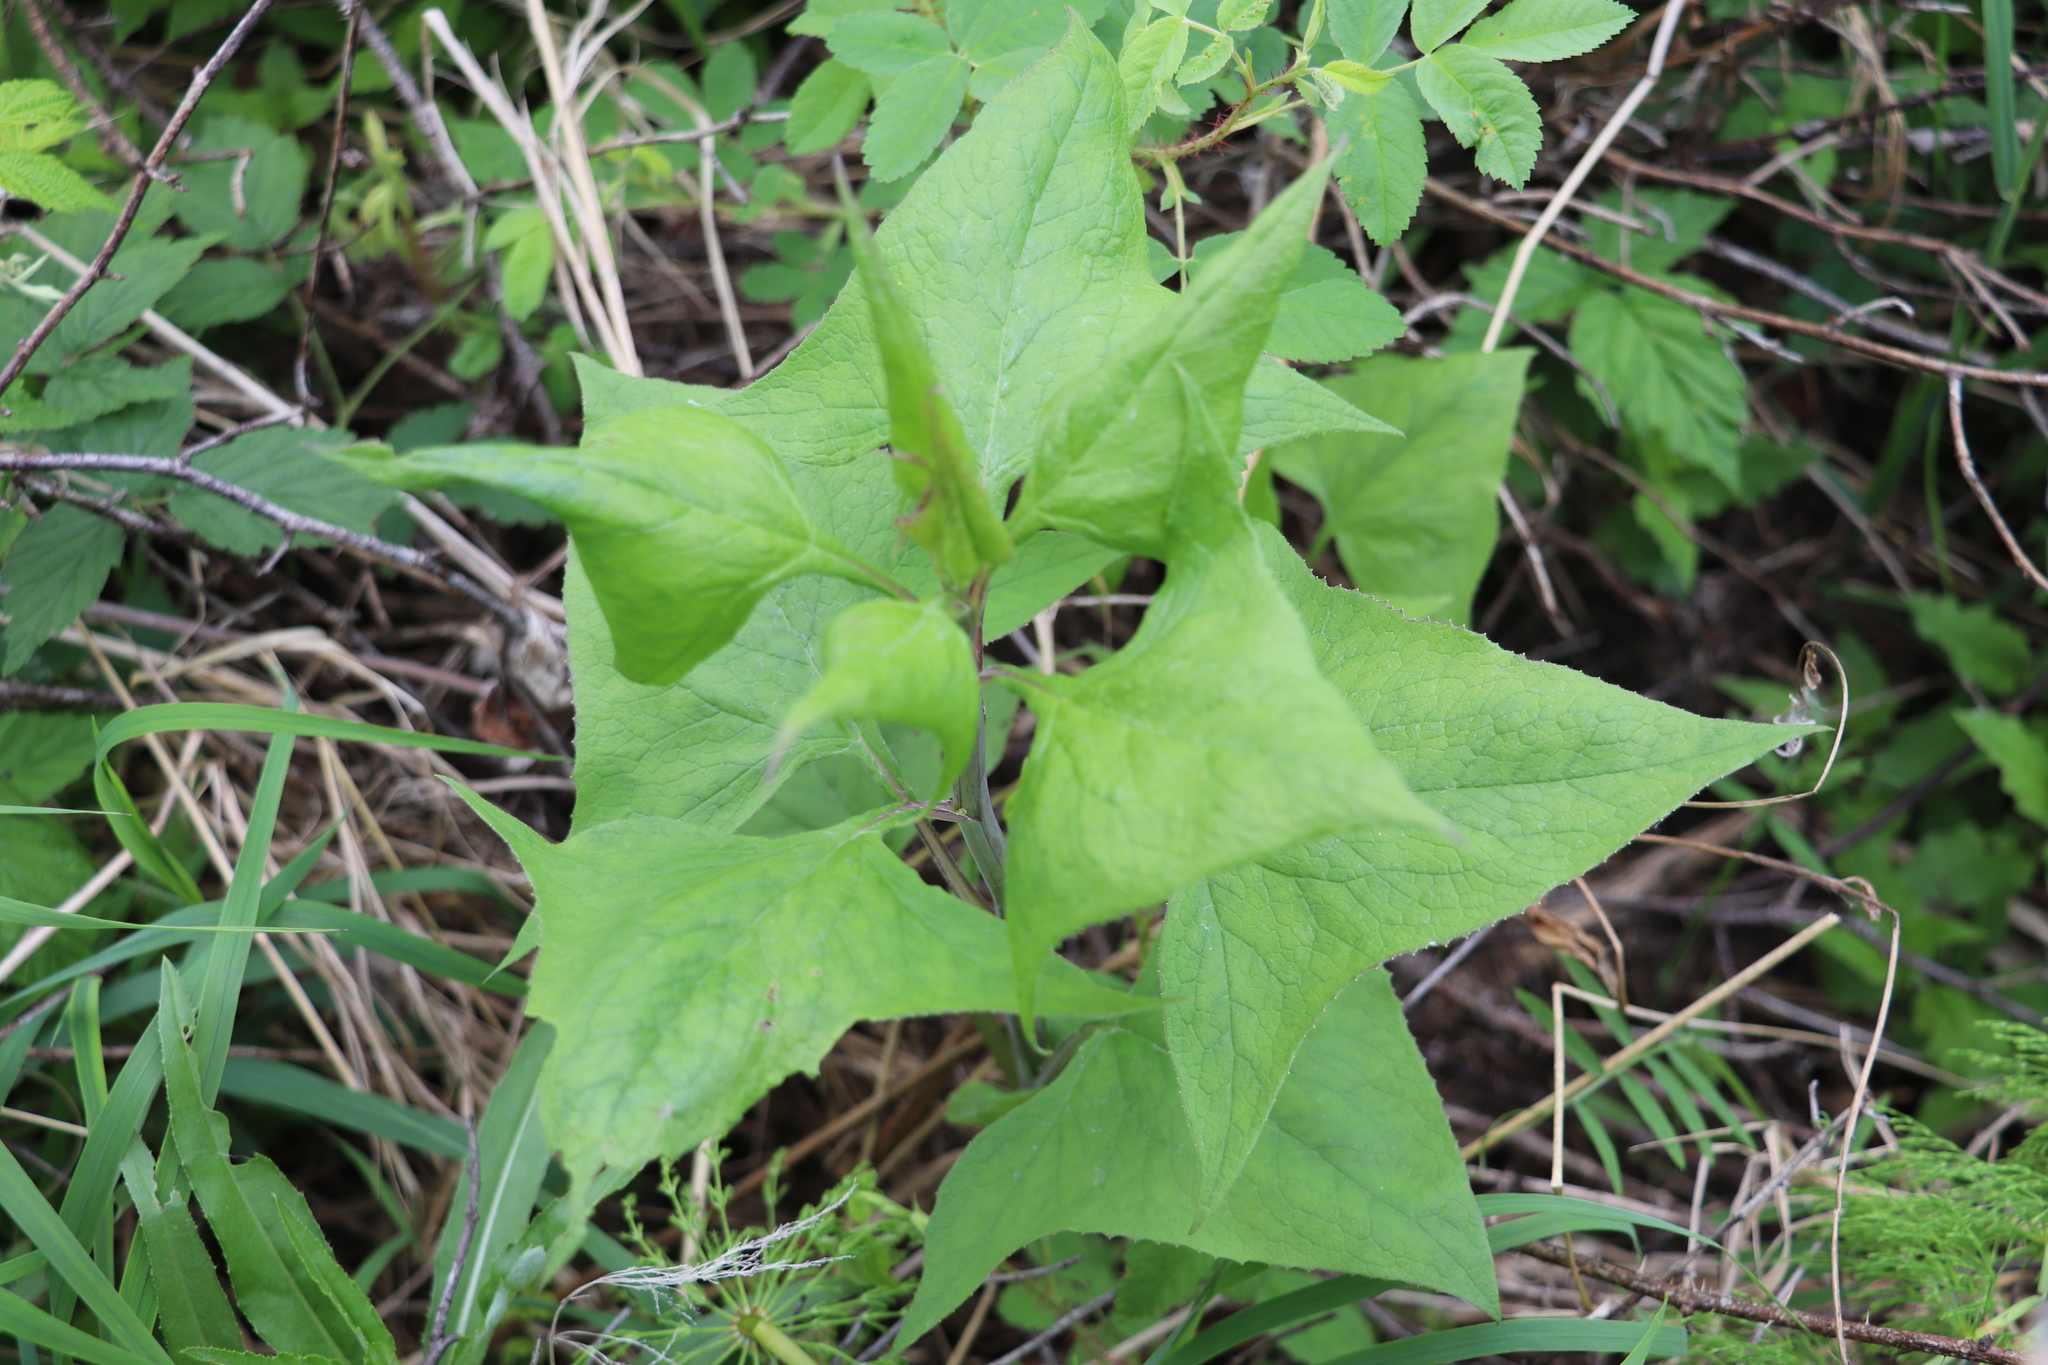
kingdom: Plantae
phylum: Tracheophyta
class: Magnoliopsida
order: Asterales
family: Asteraceae
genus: Parasenecio
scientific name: Parasenecio hastatus
